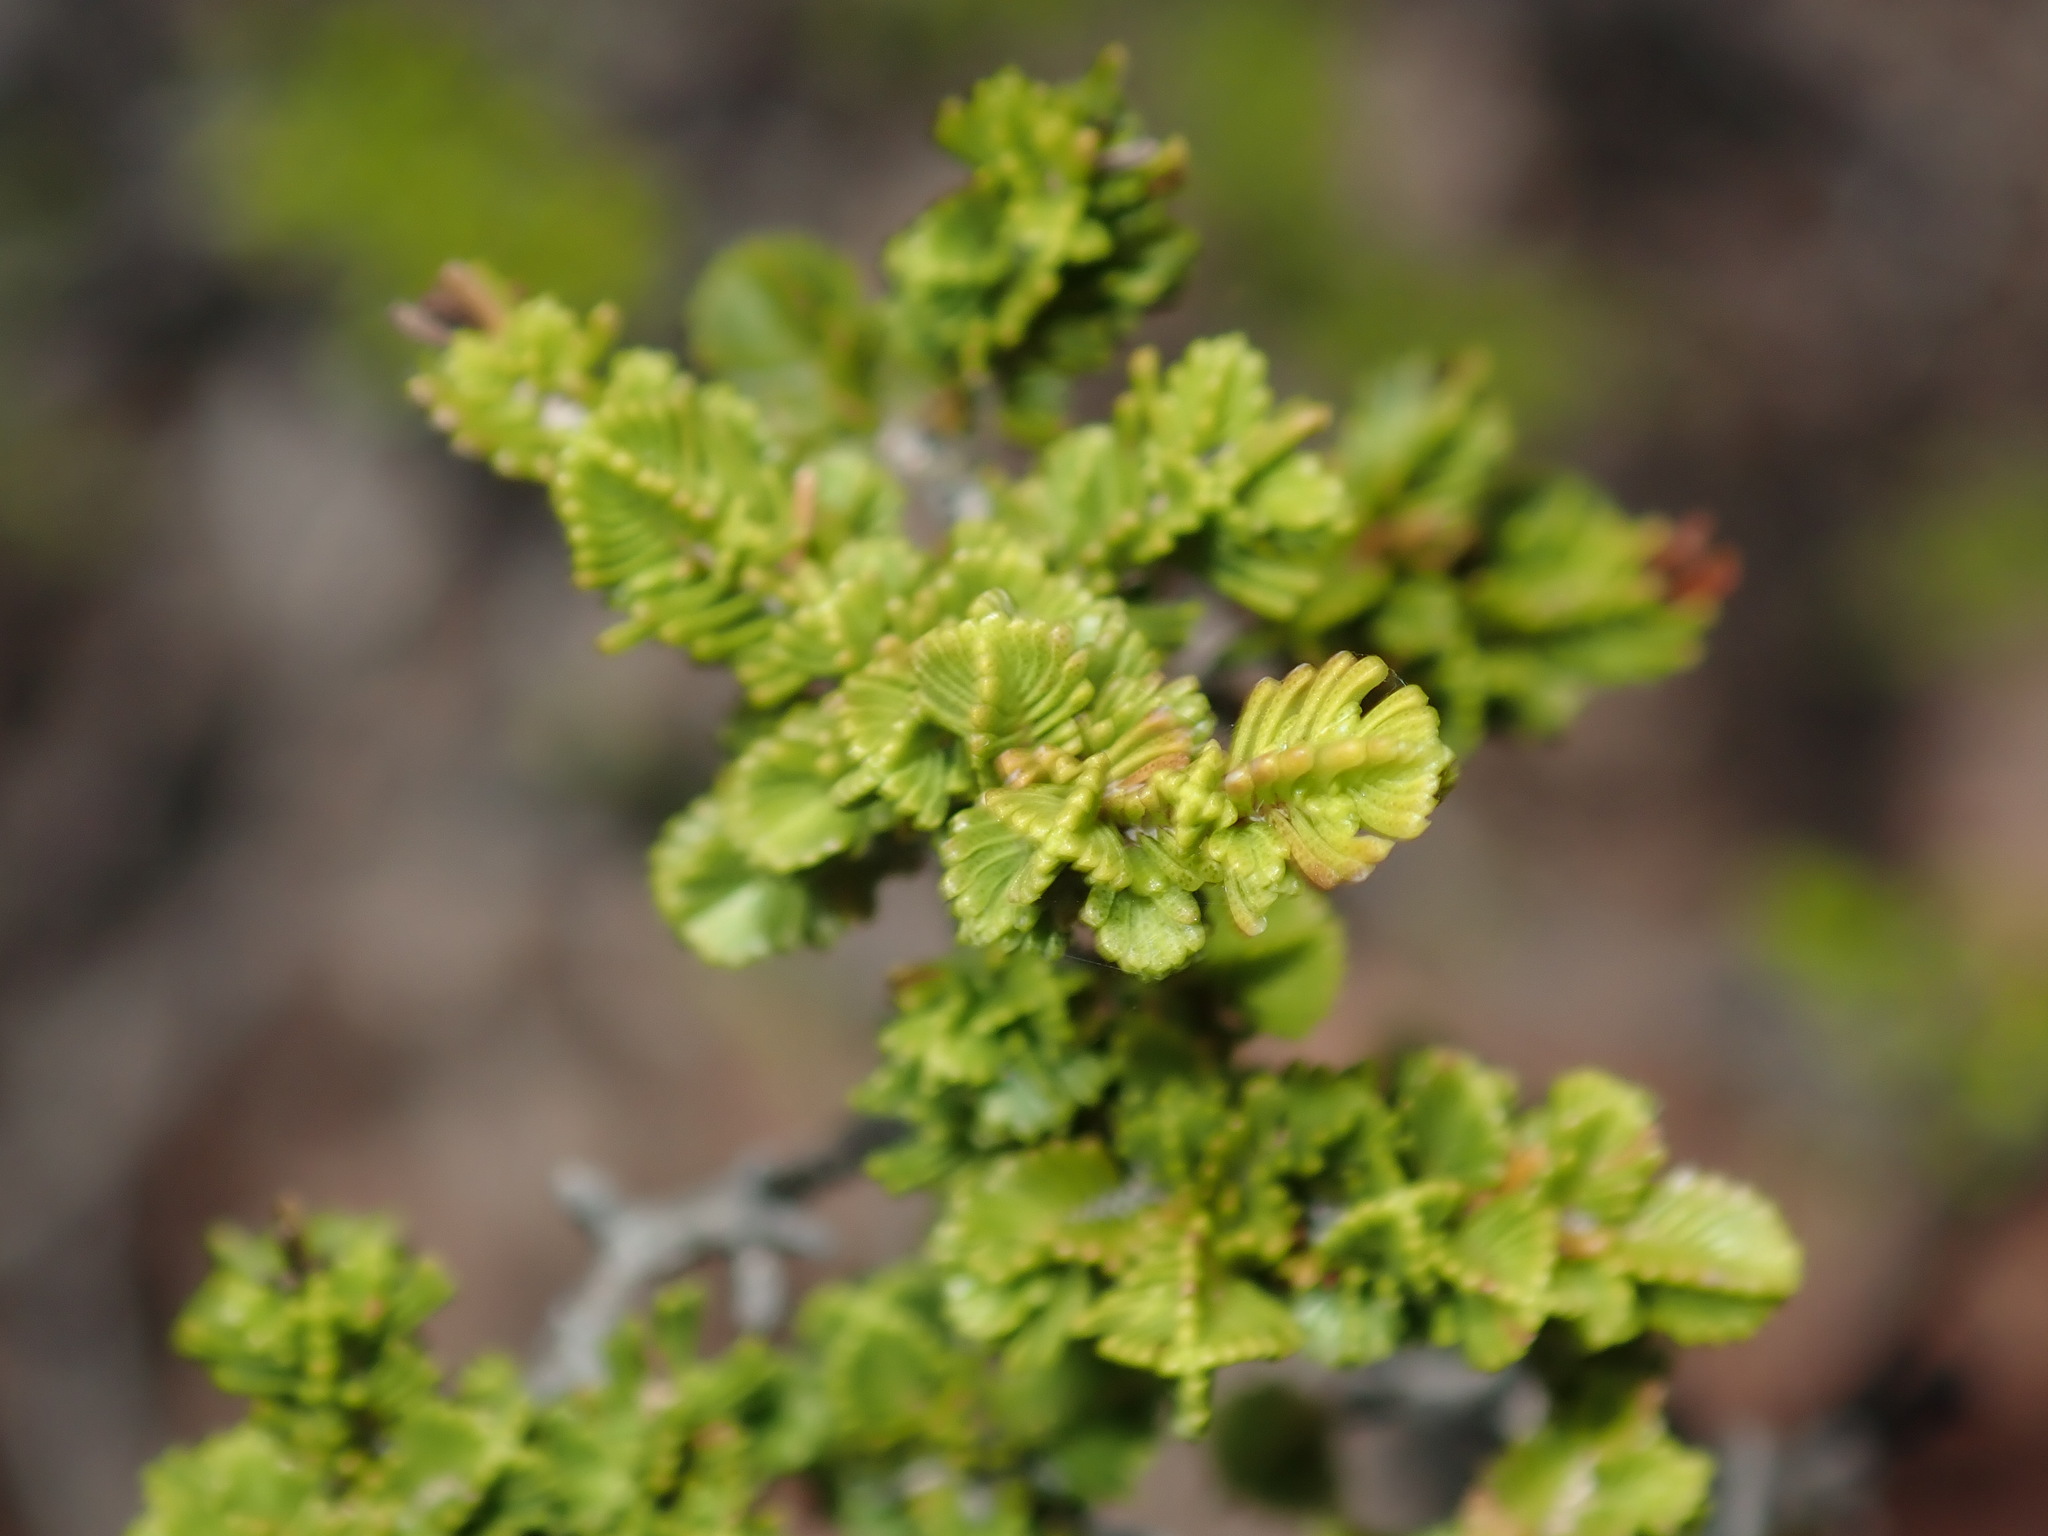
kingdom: Plantae
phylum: Tracheophyta
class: Magnoliopsida
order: Myrtales
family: Myrtaceae
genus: Verticordia
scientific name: Verticordia decussata
